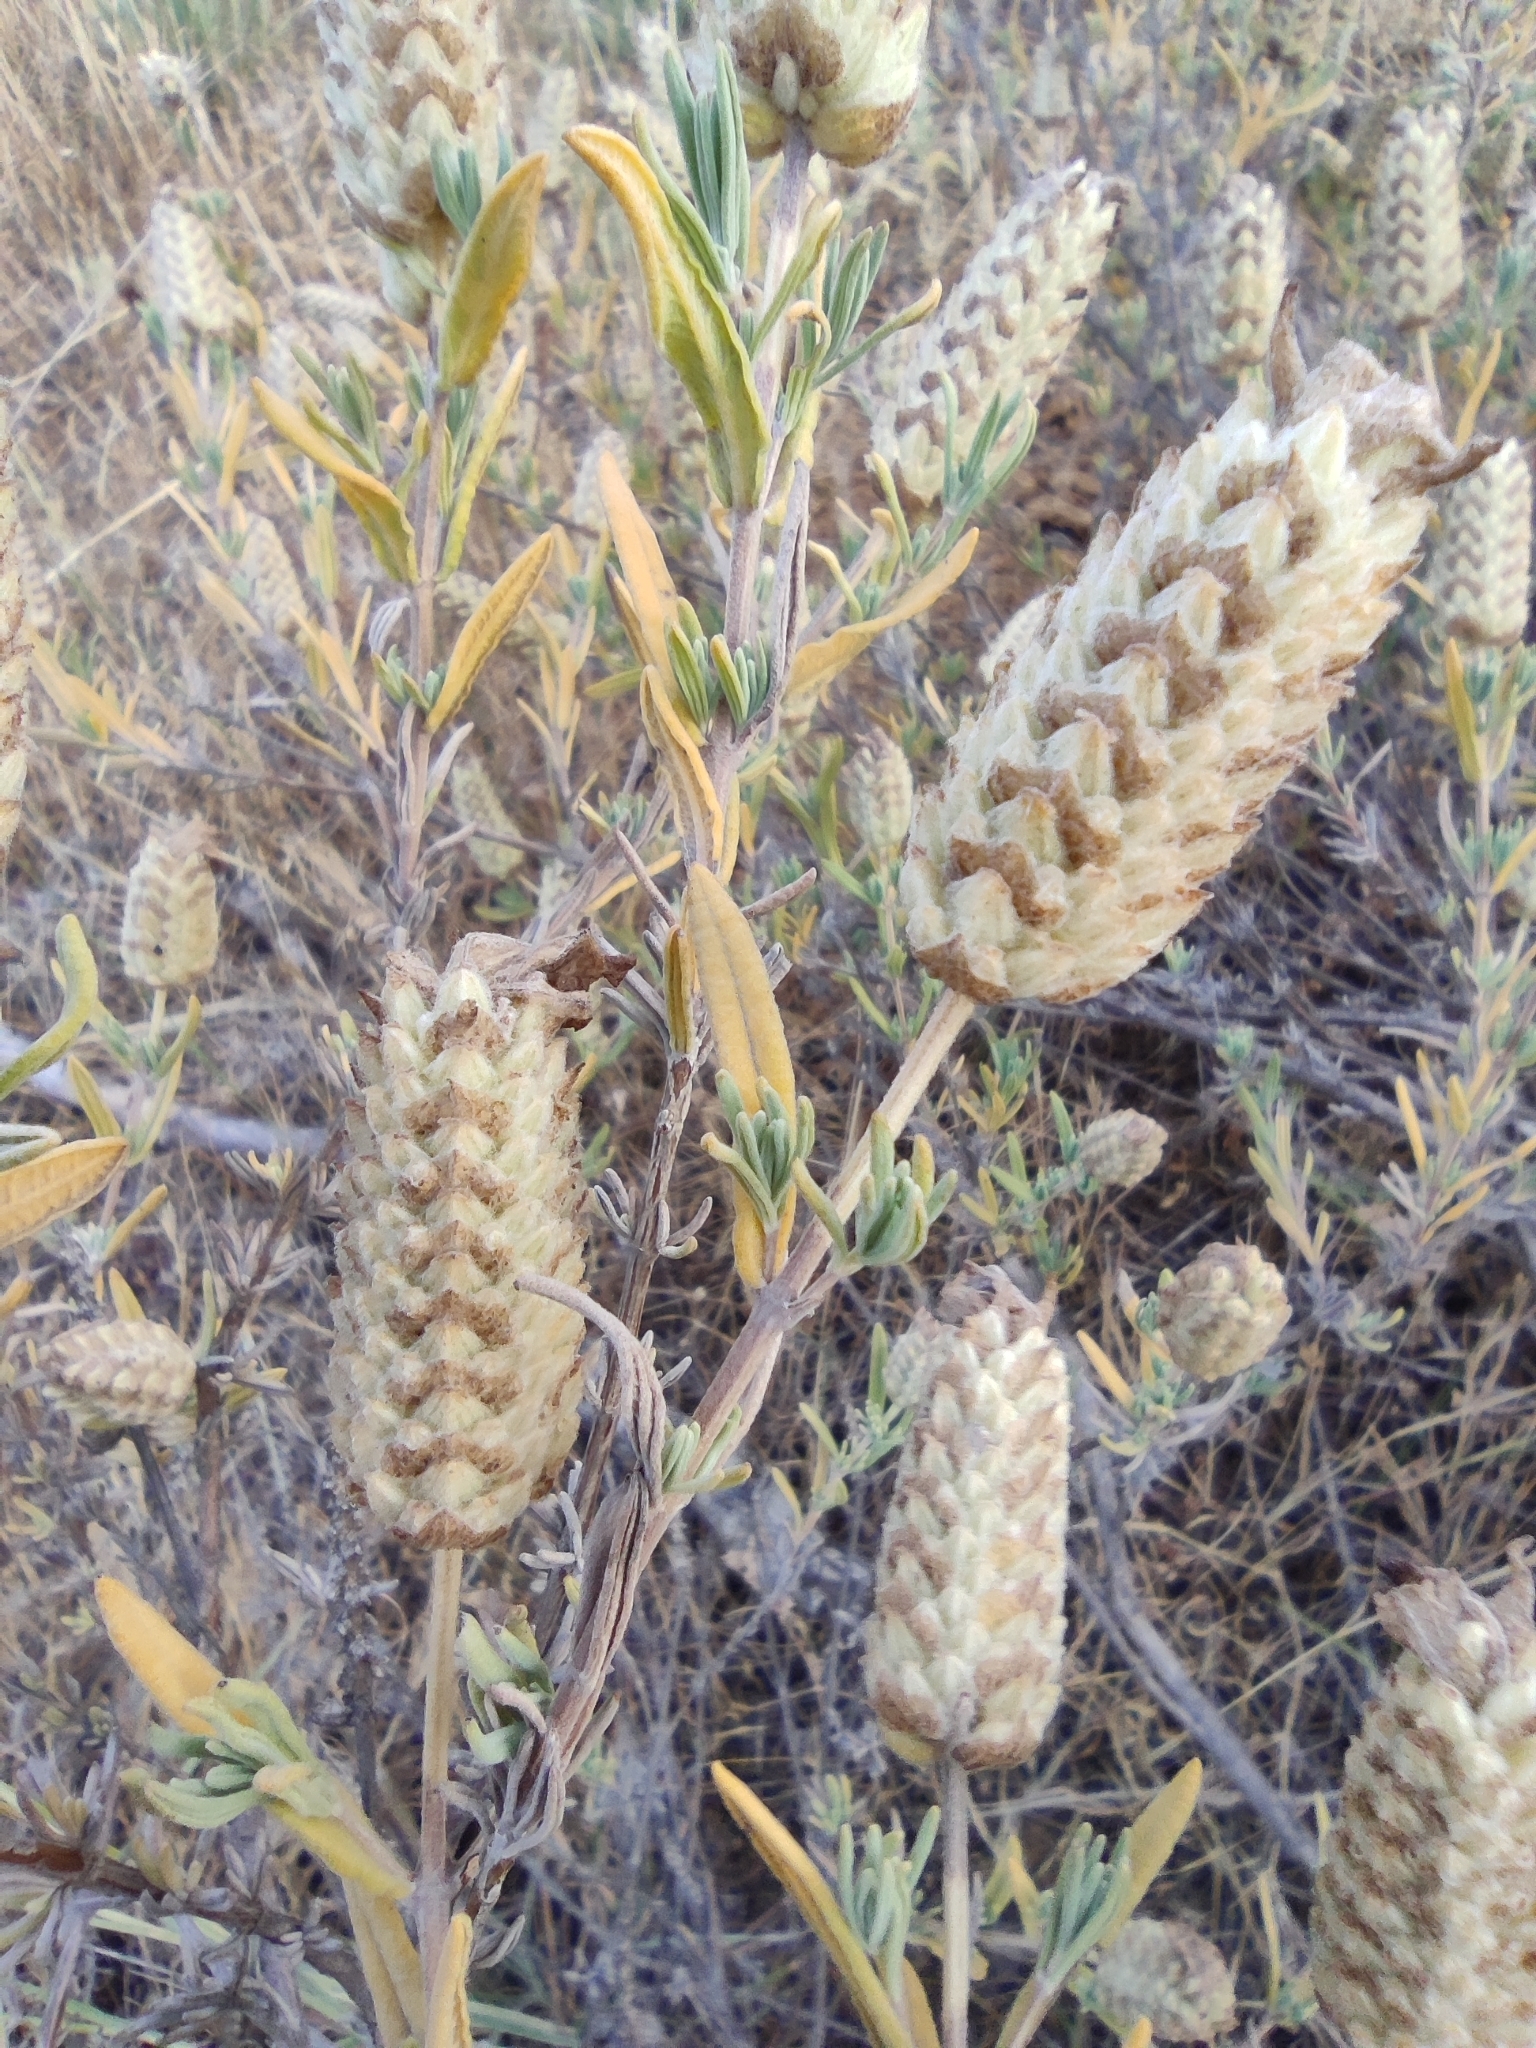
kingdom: Plantae
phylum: Tracheophyta
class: Magnoliopsida
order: Lamiales
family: Lamiaceae
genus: Lavandula
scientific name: Lavandula stoechas
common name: French lavender
